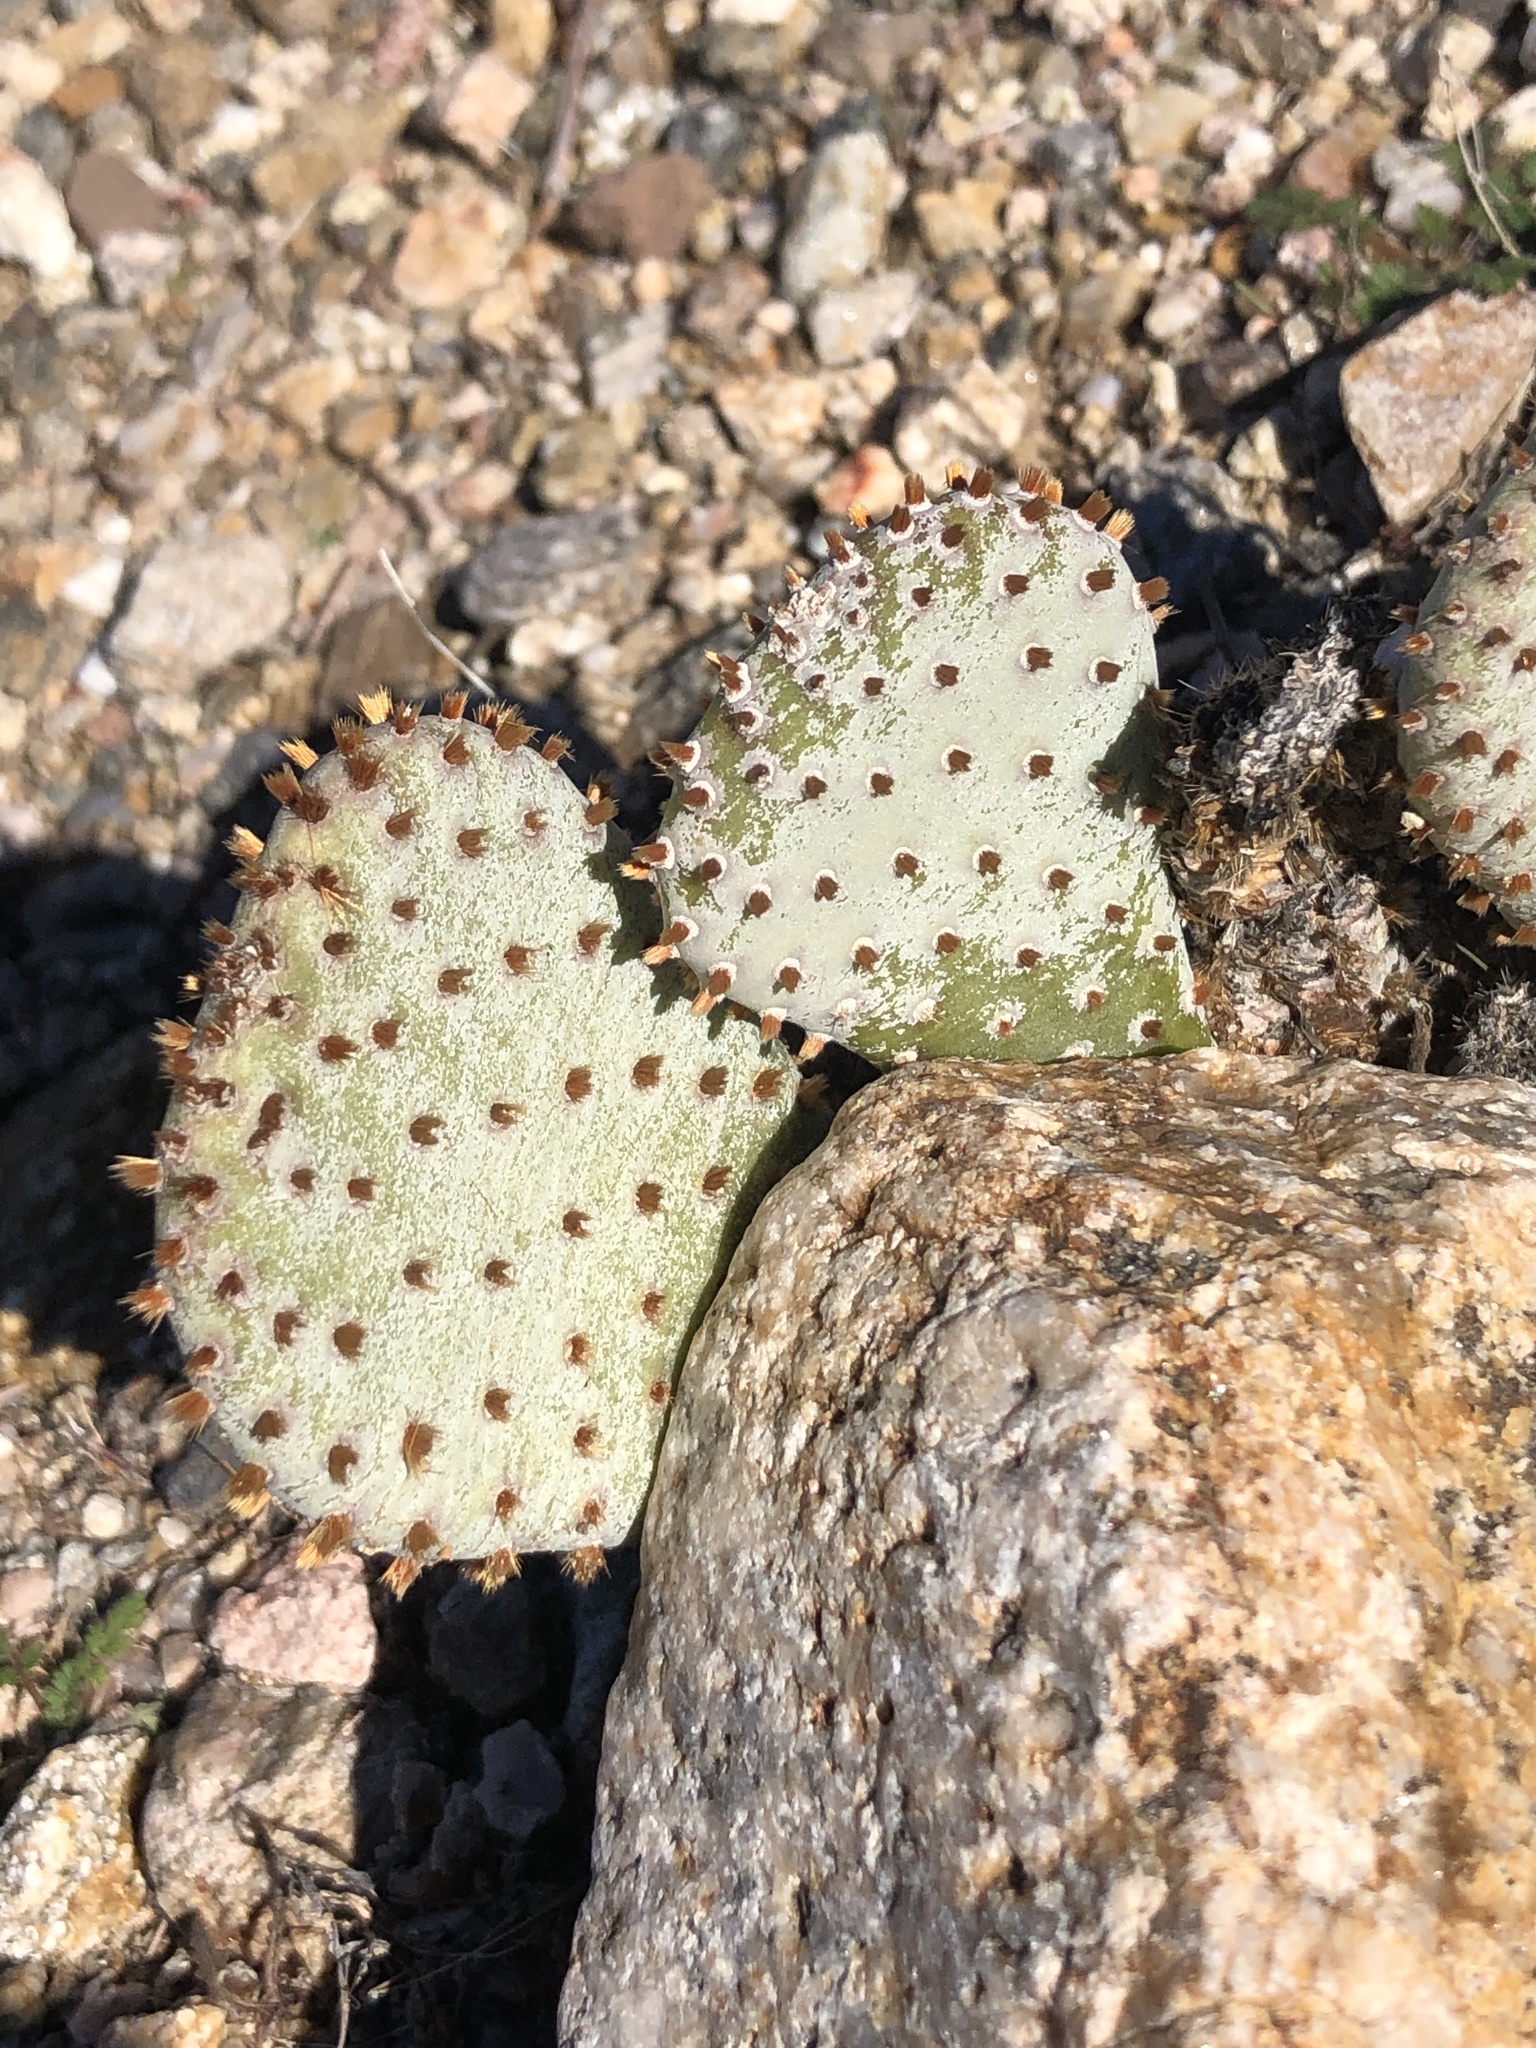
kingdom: Plantae
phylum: Tracheophyta
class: Magnoliopsida
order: Caryophyllales
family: Cactaceae
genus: Opuntia
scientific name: Opuntia basilaris
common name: Beavertail prickly-pear
